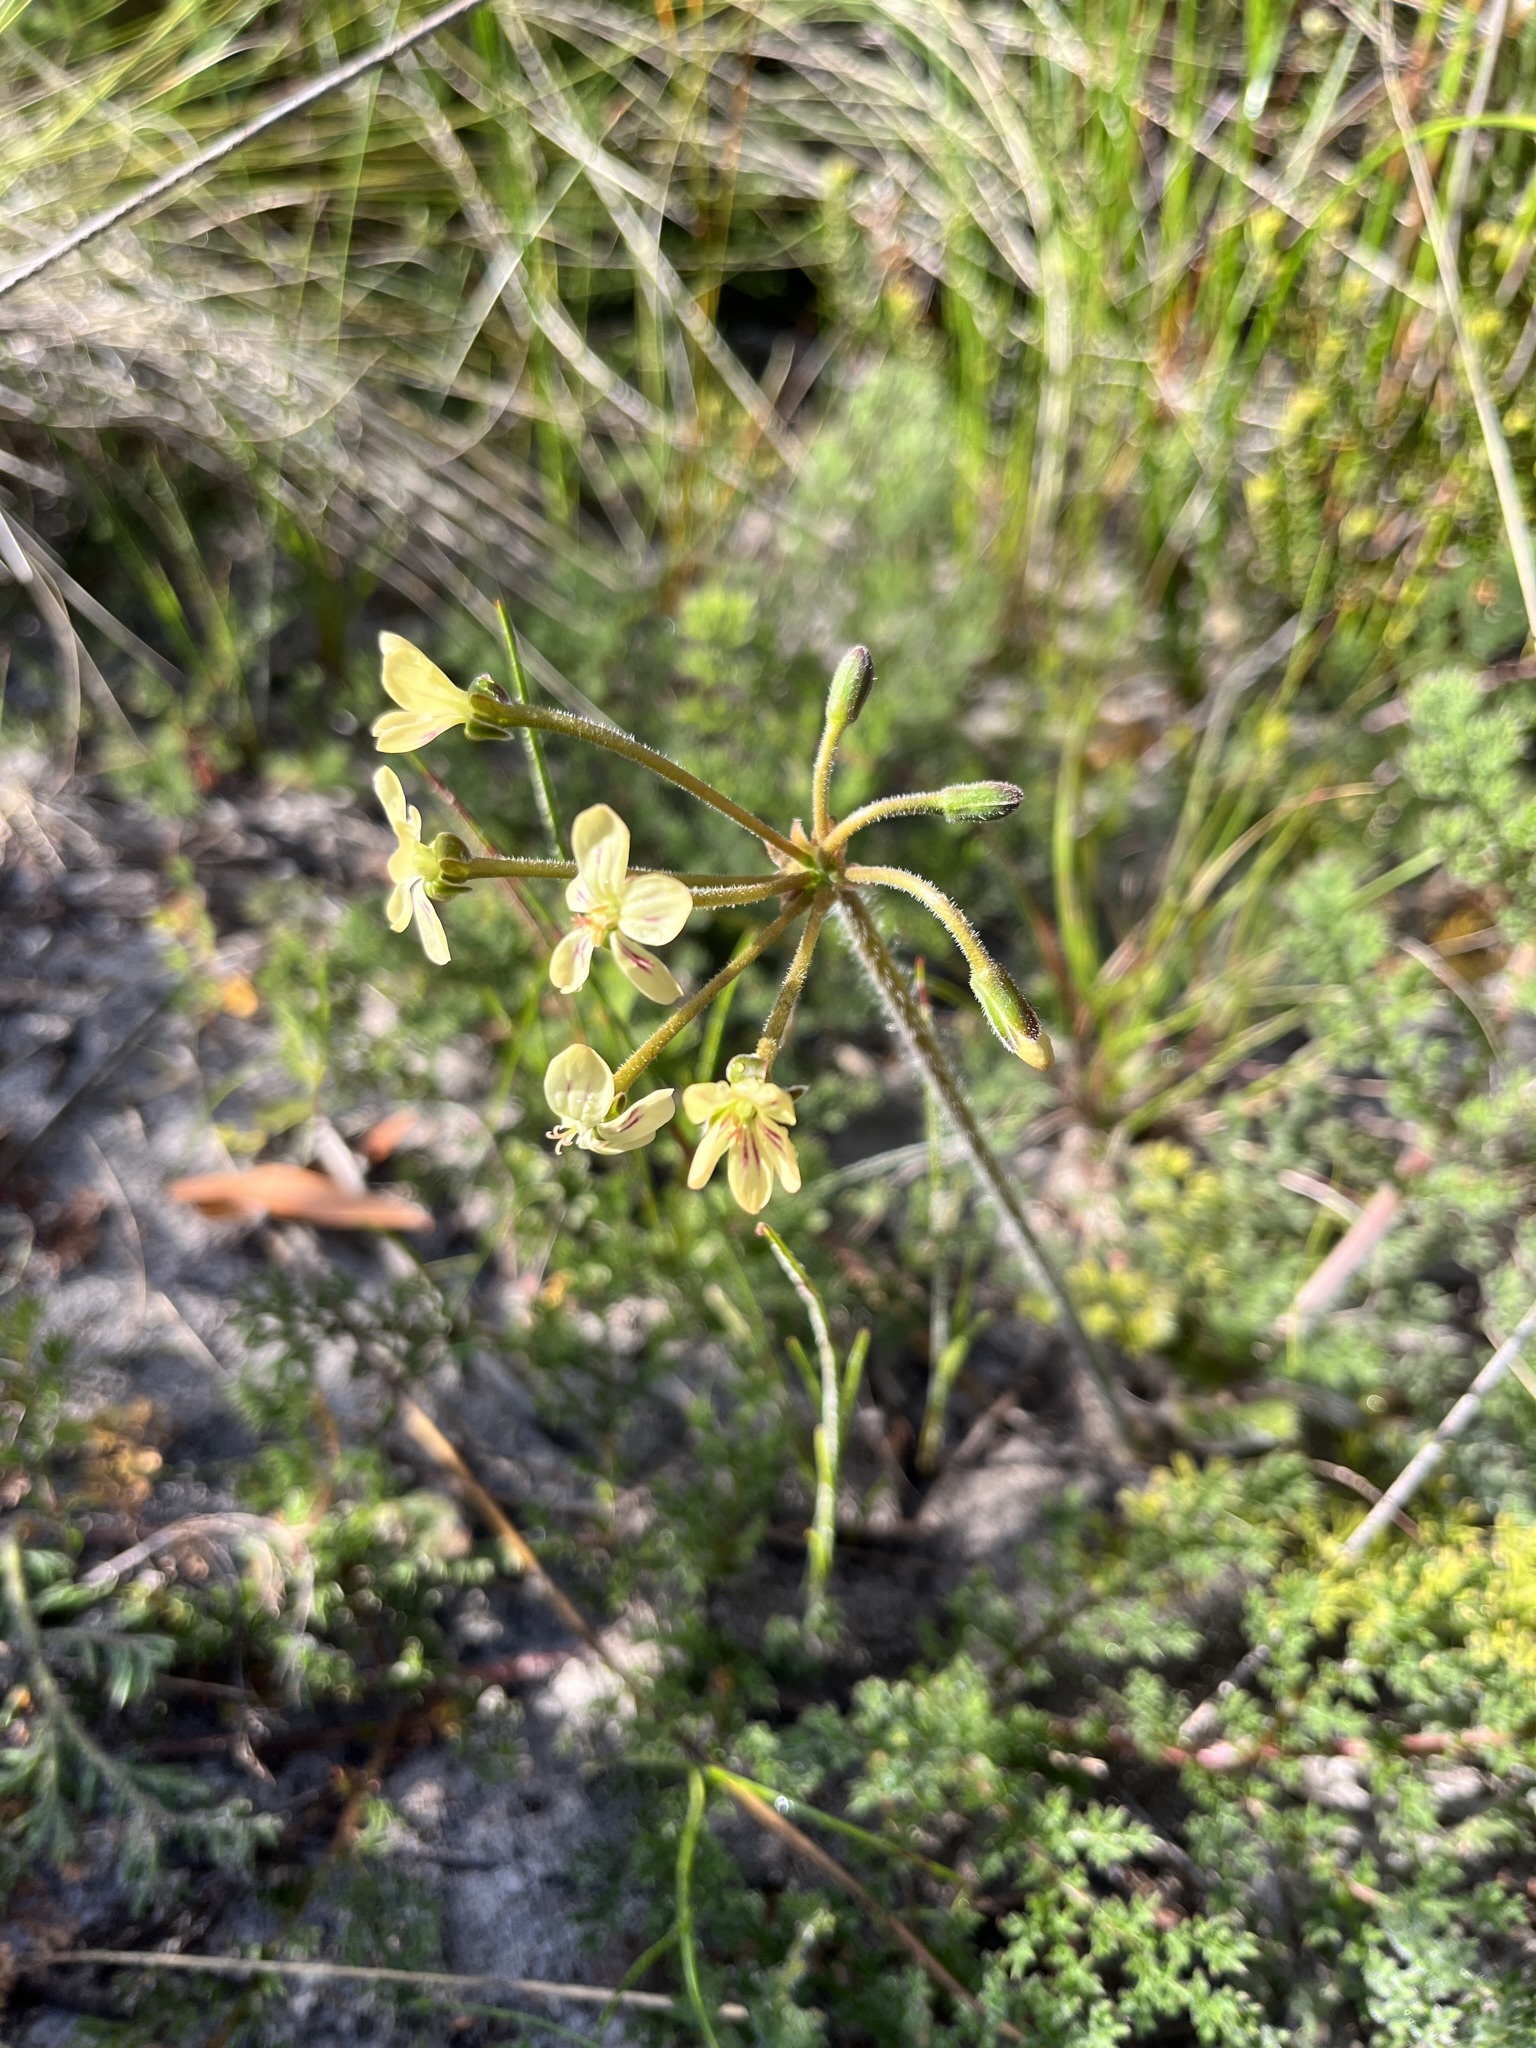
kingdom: Plantae
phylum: Tracheophyta
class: Magnoliopsida
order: Geraniales
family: Geraniaceae
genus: Pelargonium
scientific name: Pelargonium triste
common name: Night-scent pelargonium
